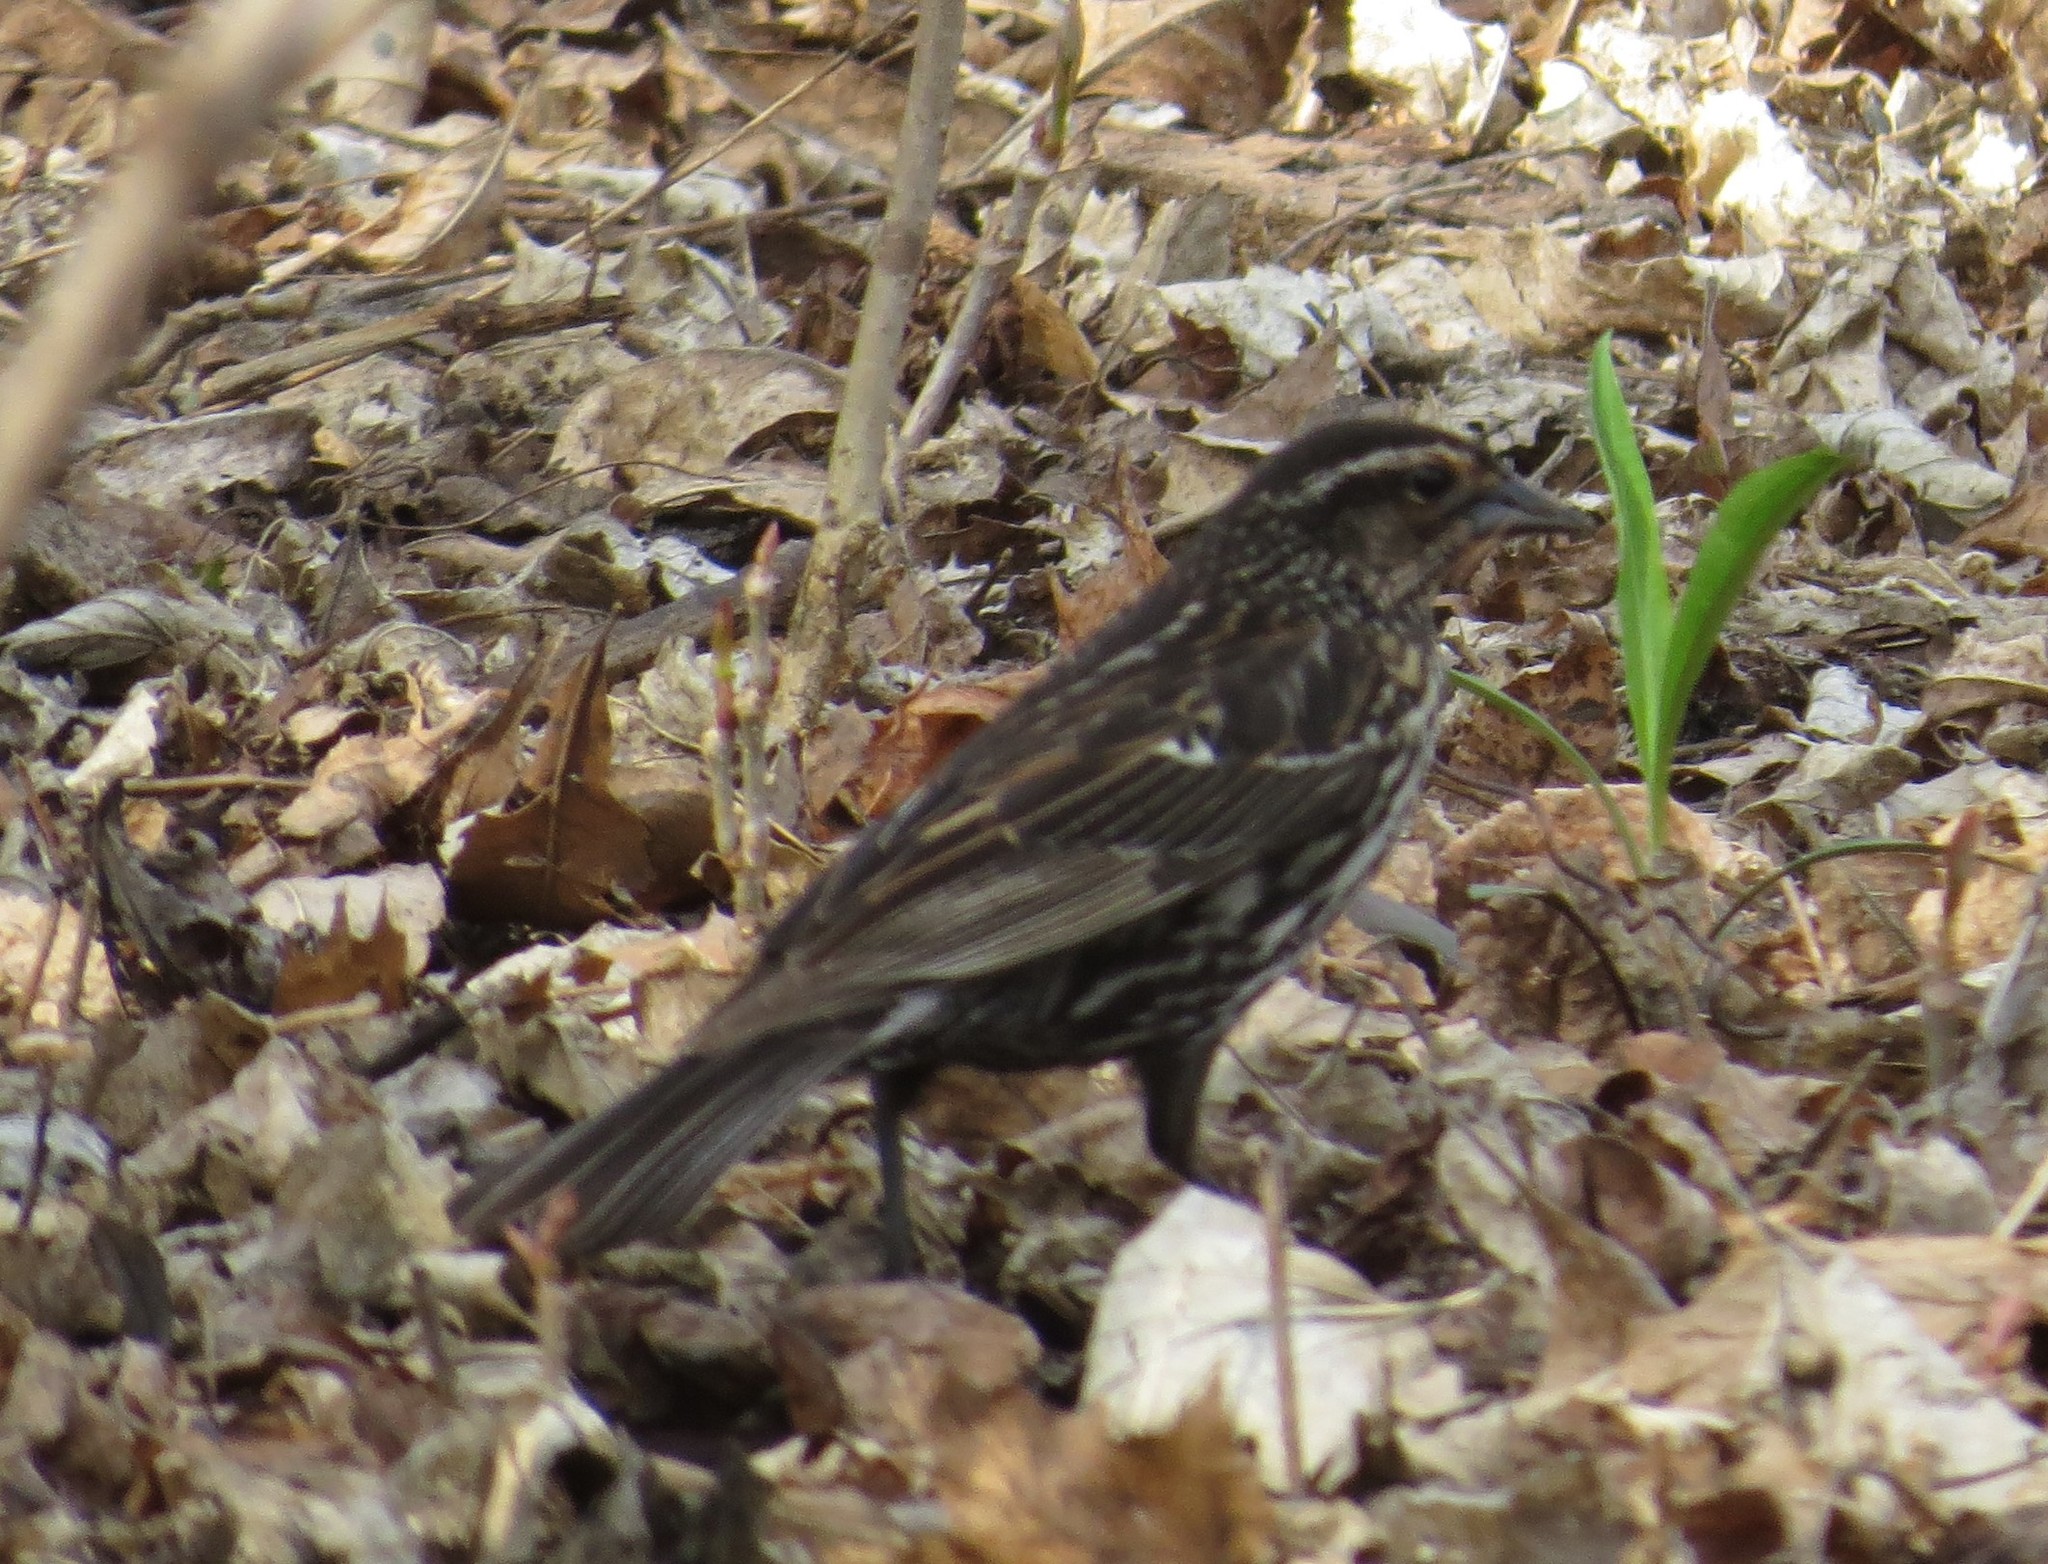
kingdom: Animalia
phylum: Chordata
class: Aves
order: Passeriformes
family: Icteridae
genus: Agelaius
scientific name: Agelaius phoeniceus
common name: Red-winged blackbird
